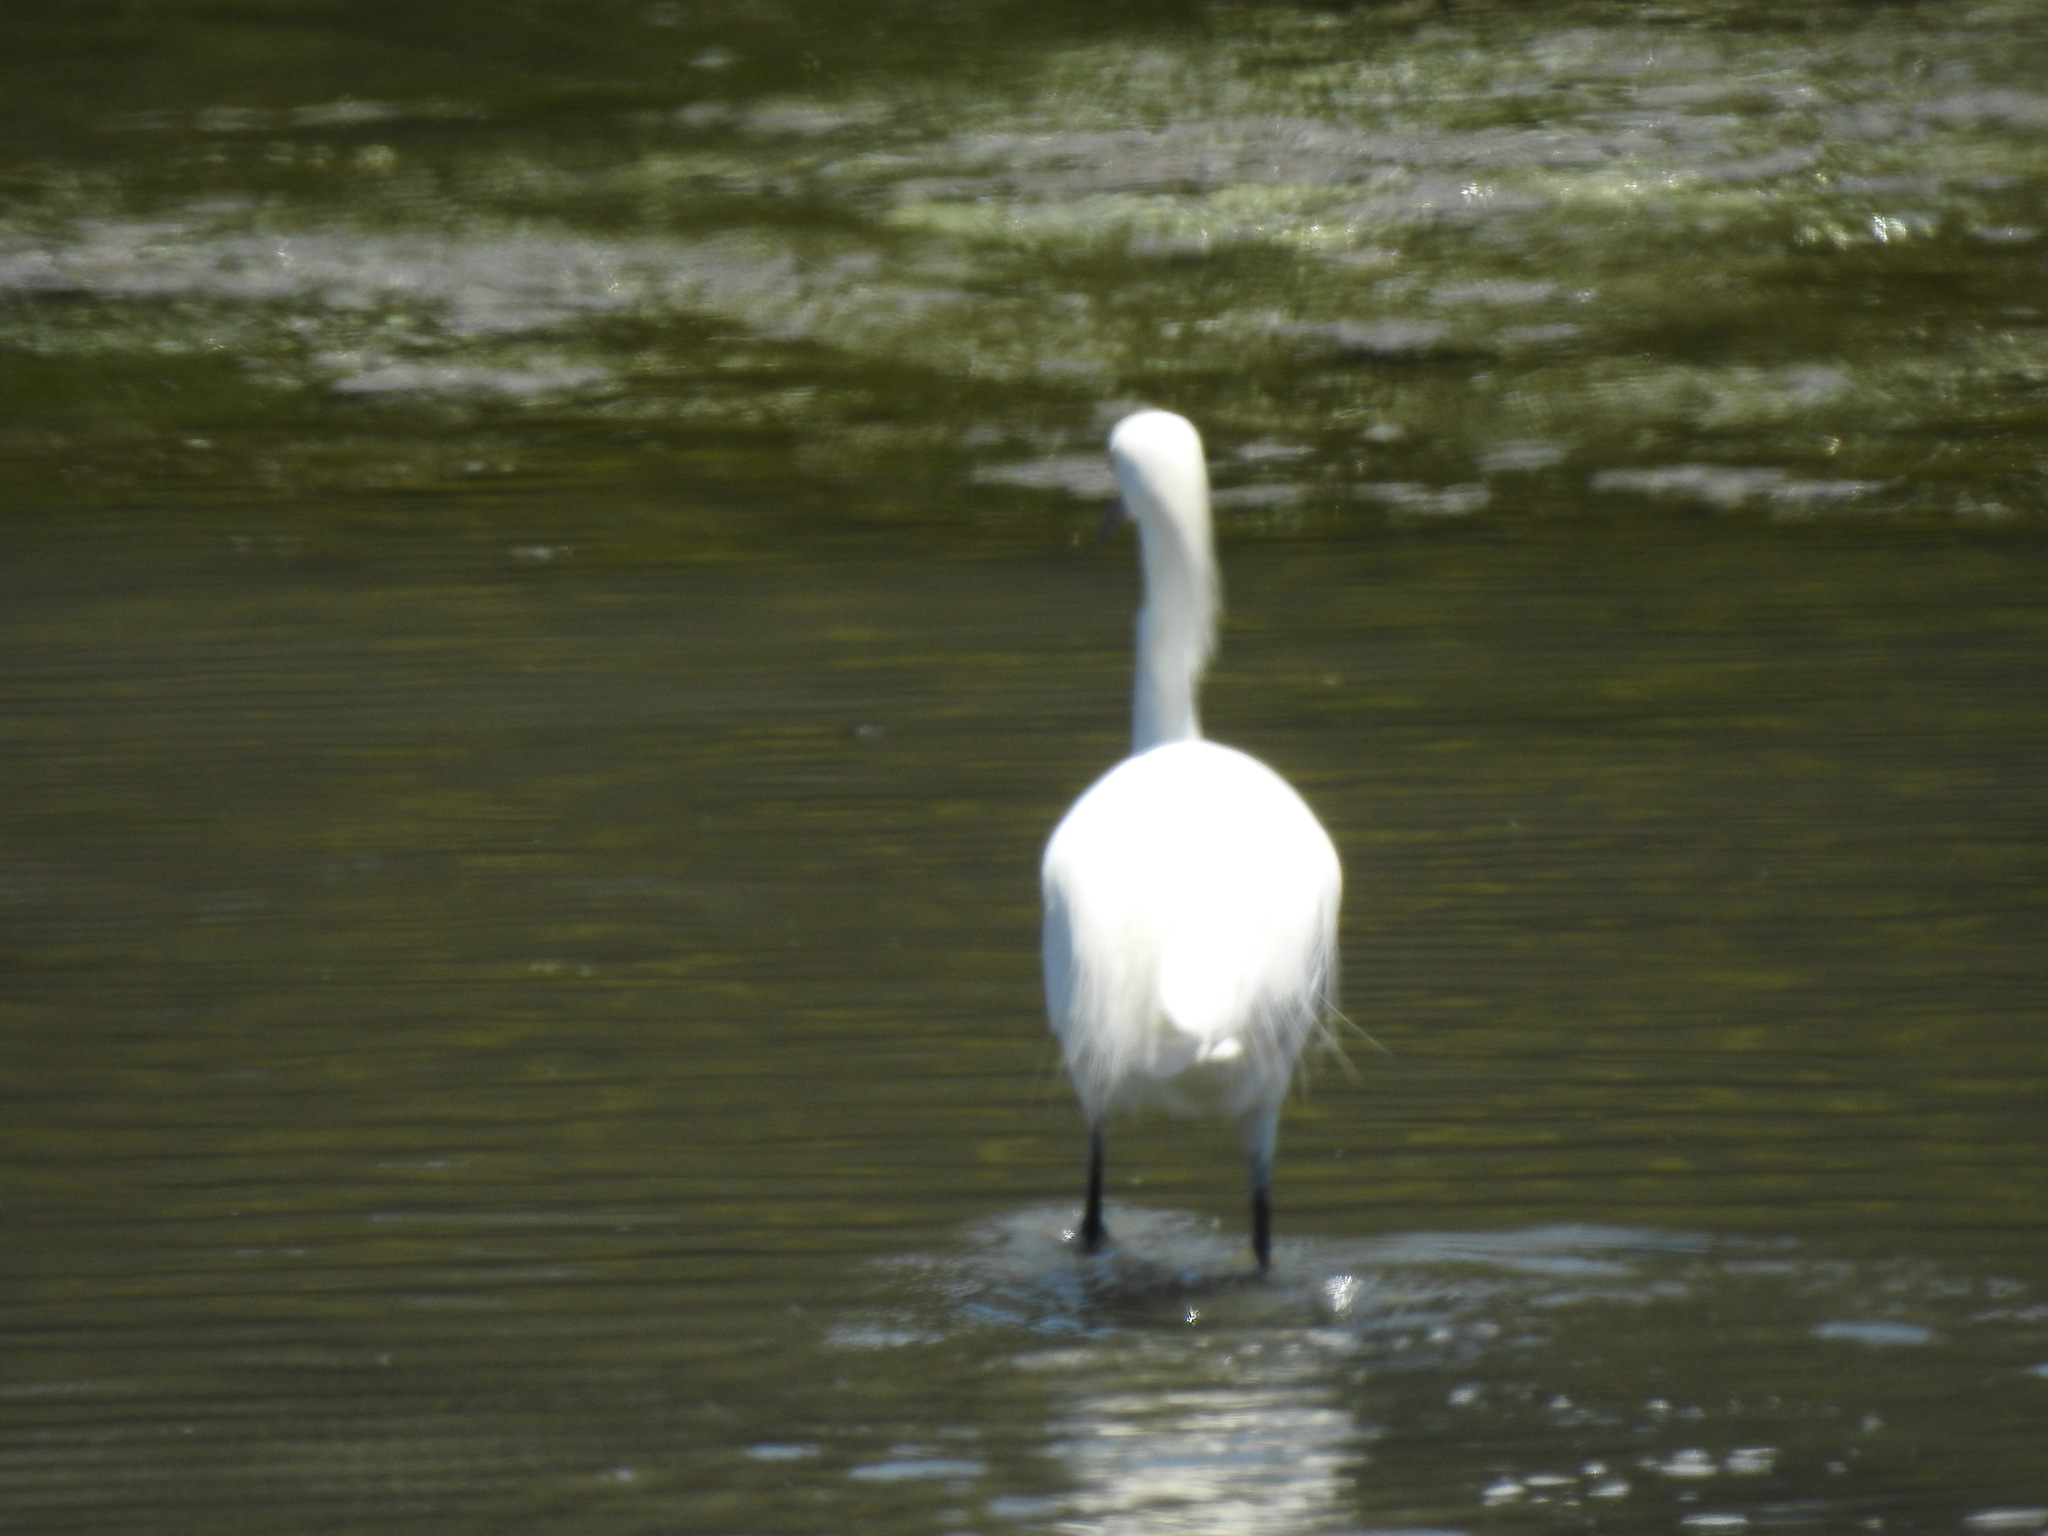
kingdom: Animalia
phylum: Chordata
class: Aves
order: Pelecaniformes
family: Ardeidae
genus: Egretta
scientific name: Egretta thula
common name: Snowy egret
